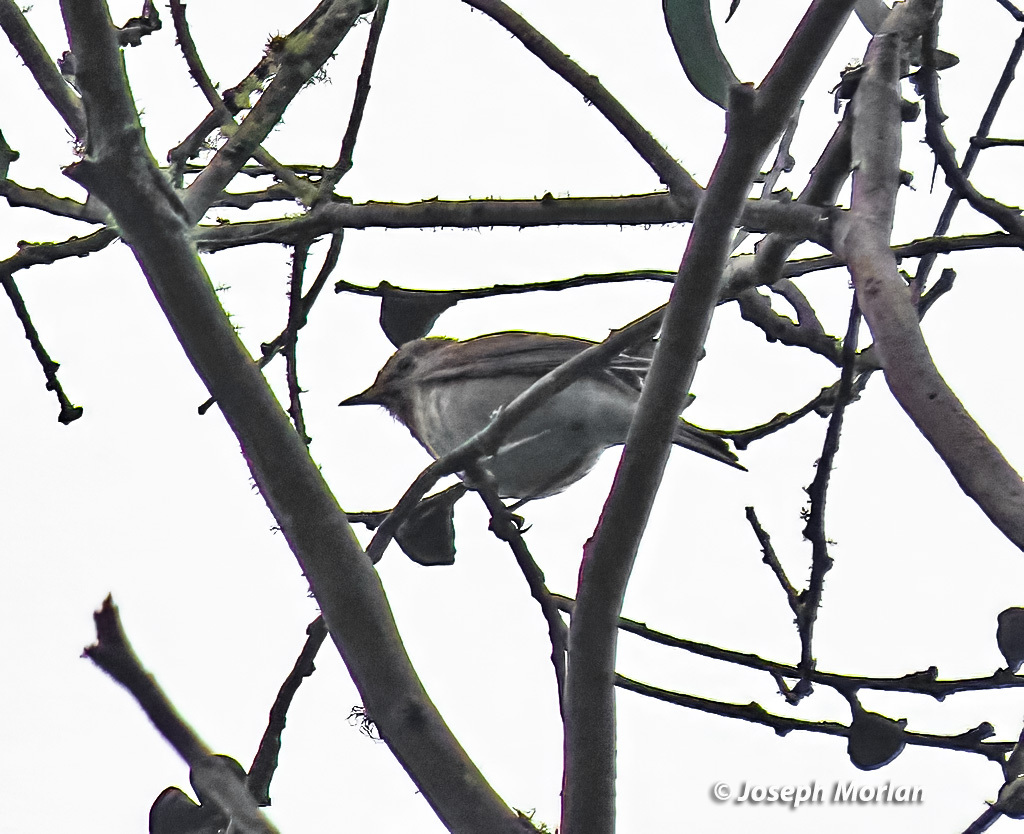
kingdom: Animalia
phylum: Chordata
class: Aves
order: Passeriformes
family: Turdidae
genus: Catharus
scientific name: Catharus ustulatus
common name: Swainson's thrush
